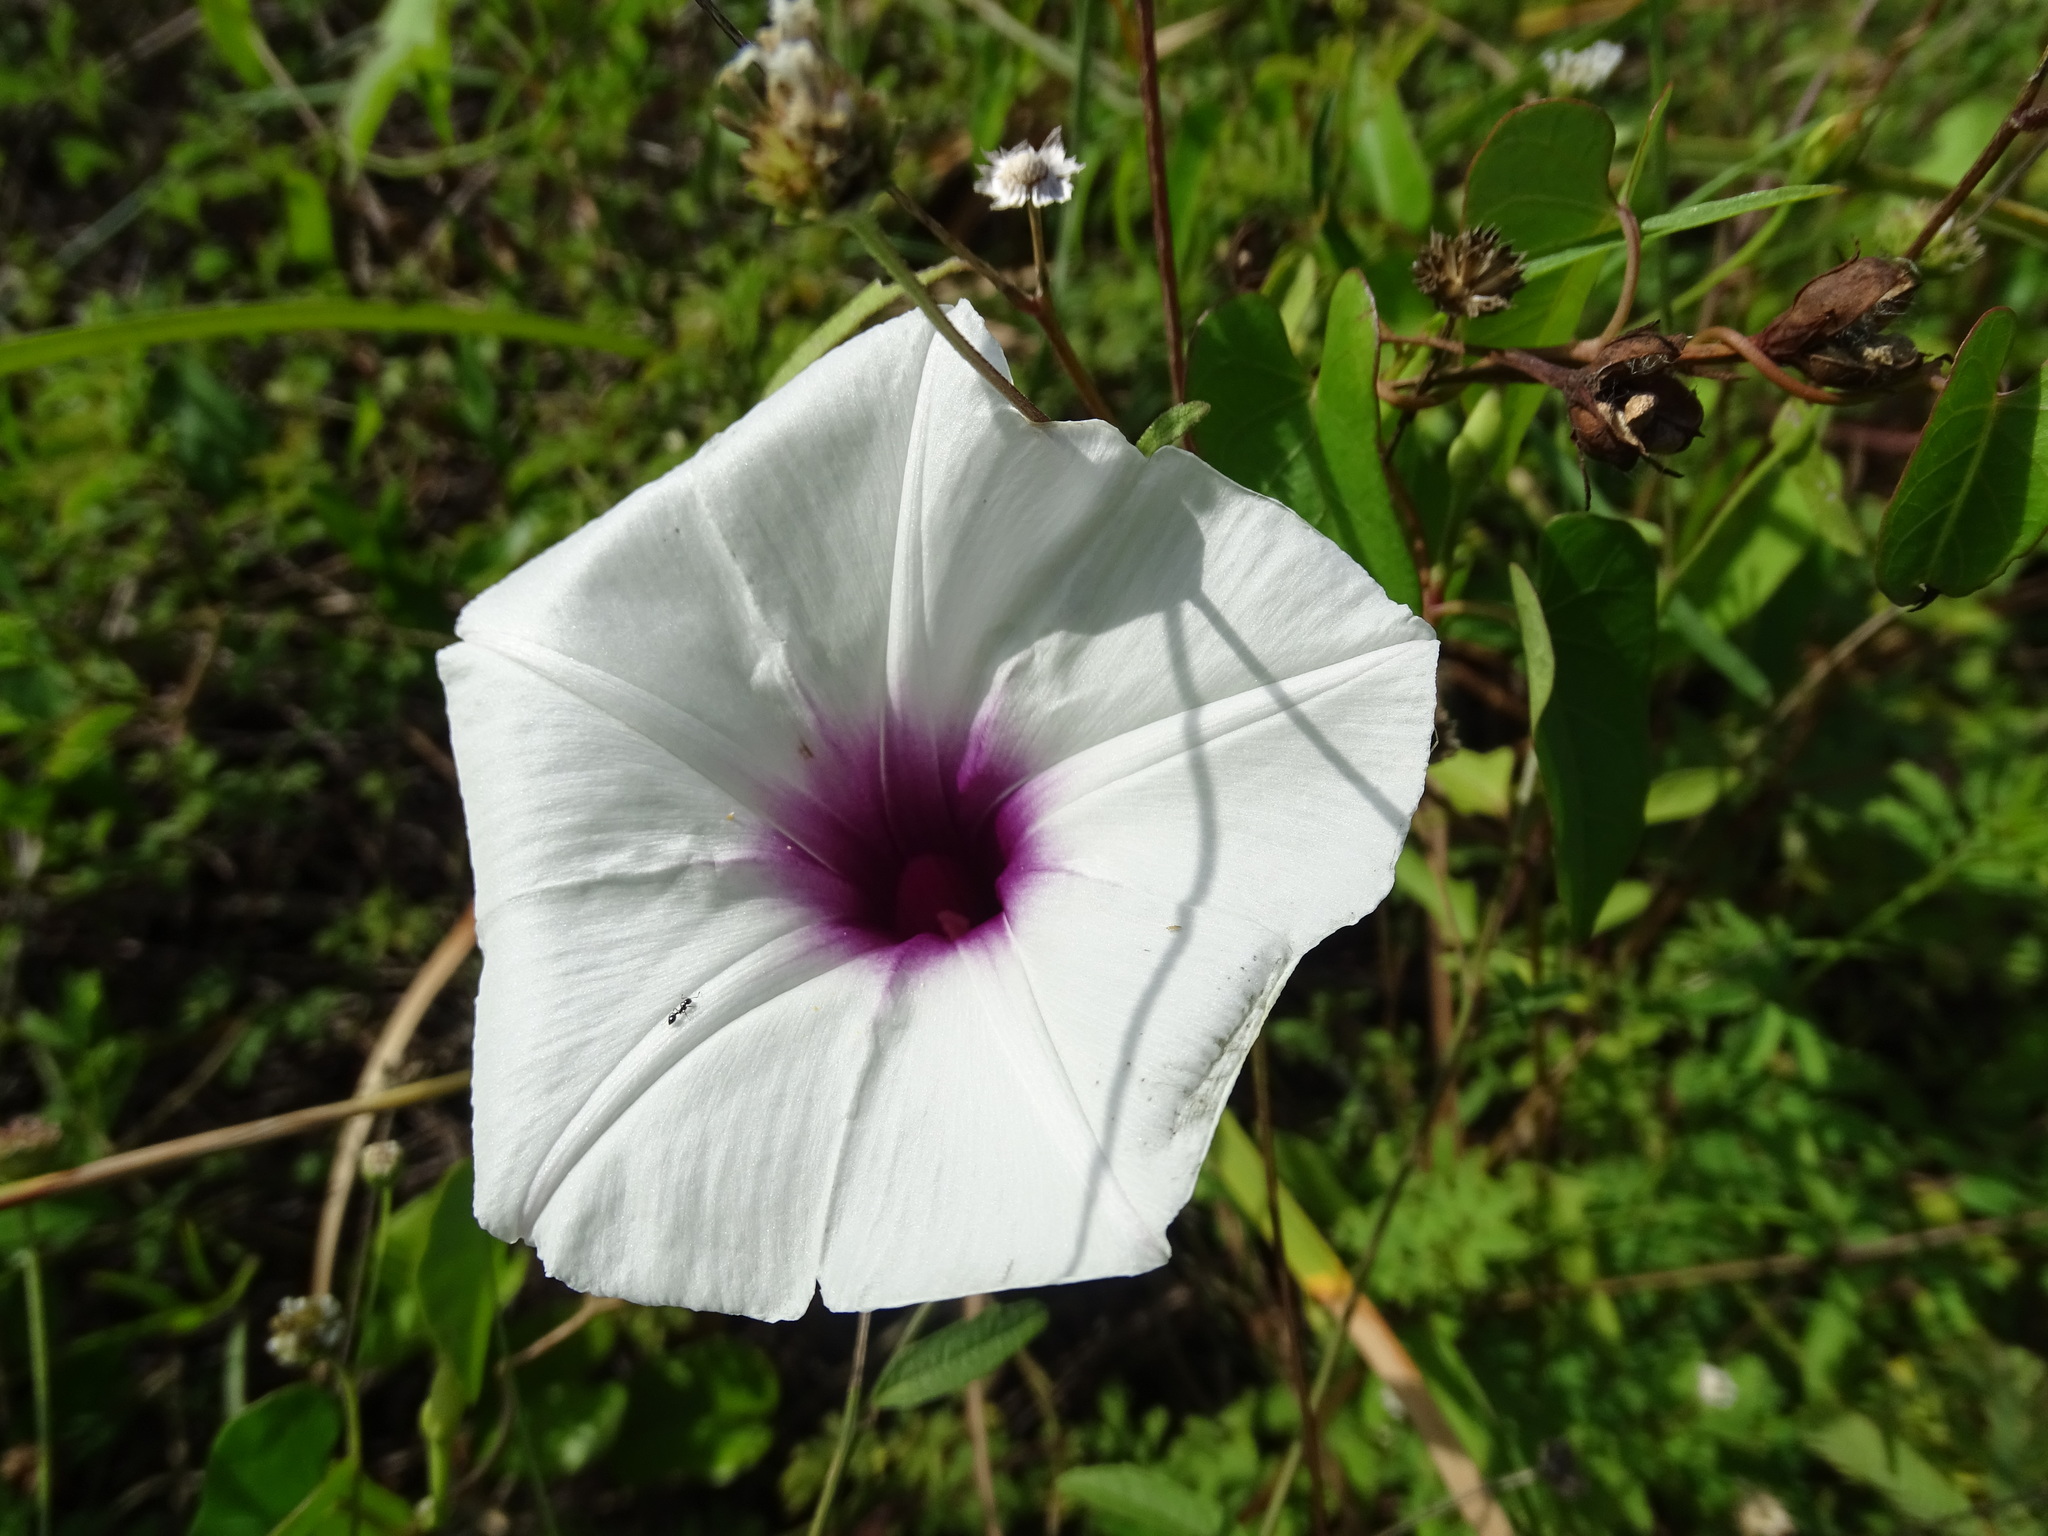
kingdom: Plantae
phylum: Tracheophyta
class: Magnoliopsida
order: Solanales
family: Convolvulaceae
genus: Ipomoea
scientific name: Ipomoea anisomeres
